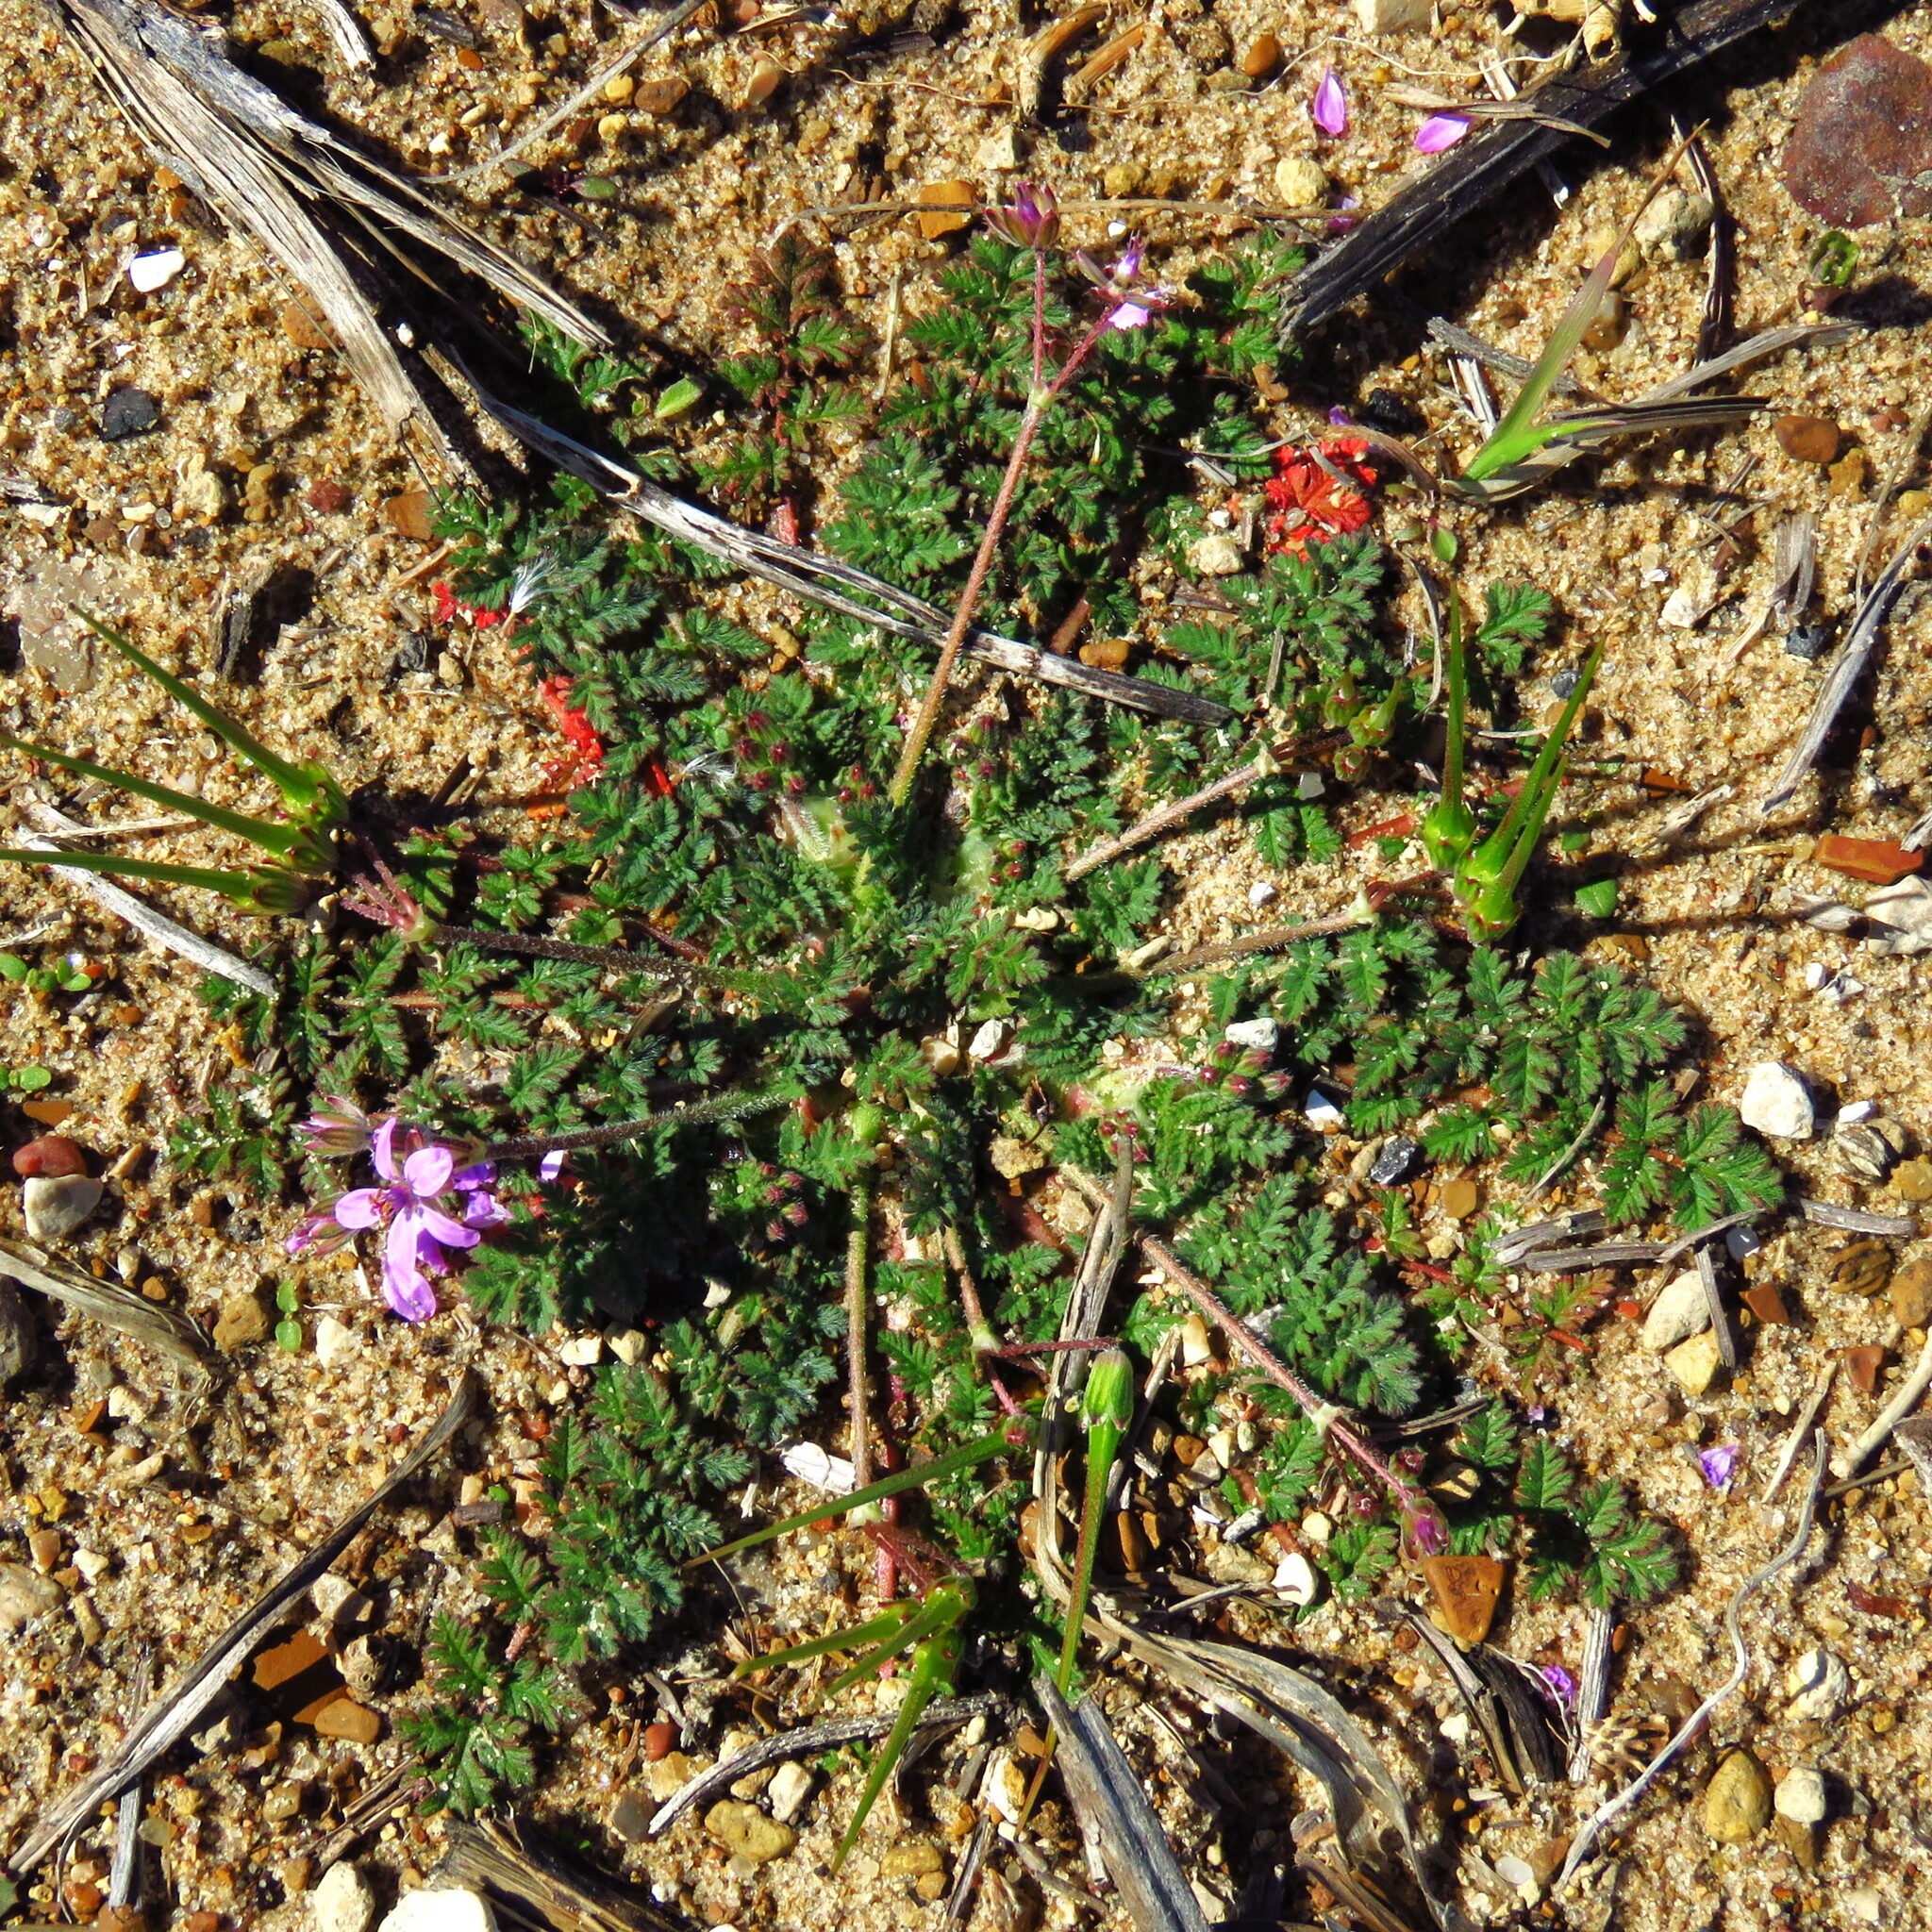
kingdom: Plantae
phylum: Tracheophyta
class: Magnoliopsida
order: Geraniales
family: Geraniaceae
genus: Erodium
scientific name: Erodium cicutarium
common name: Common stork's-bill
